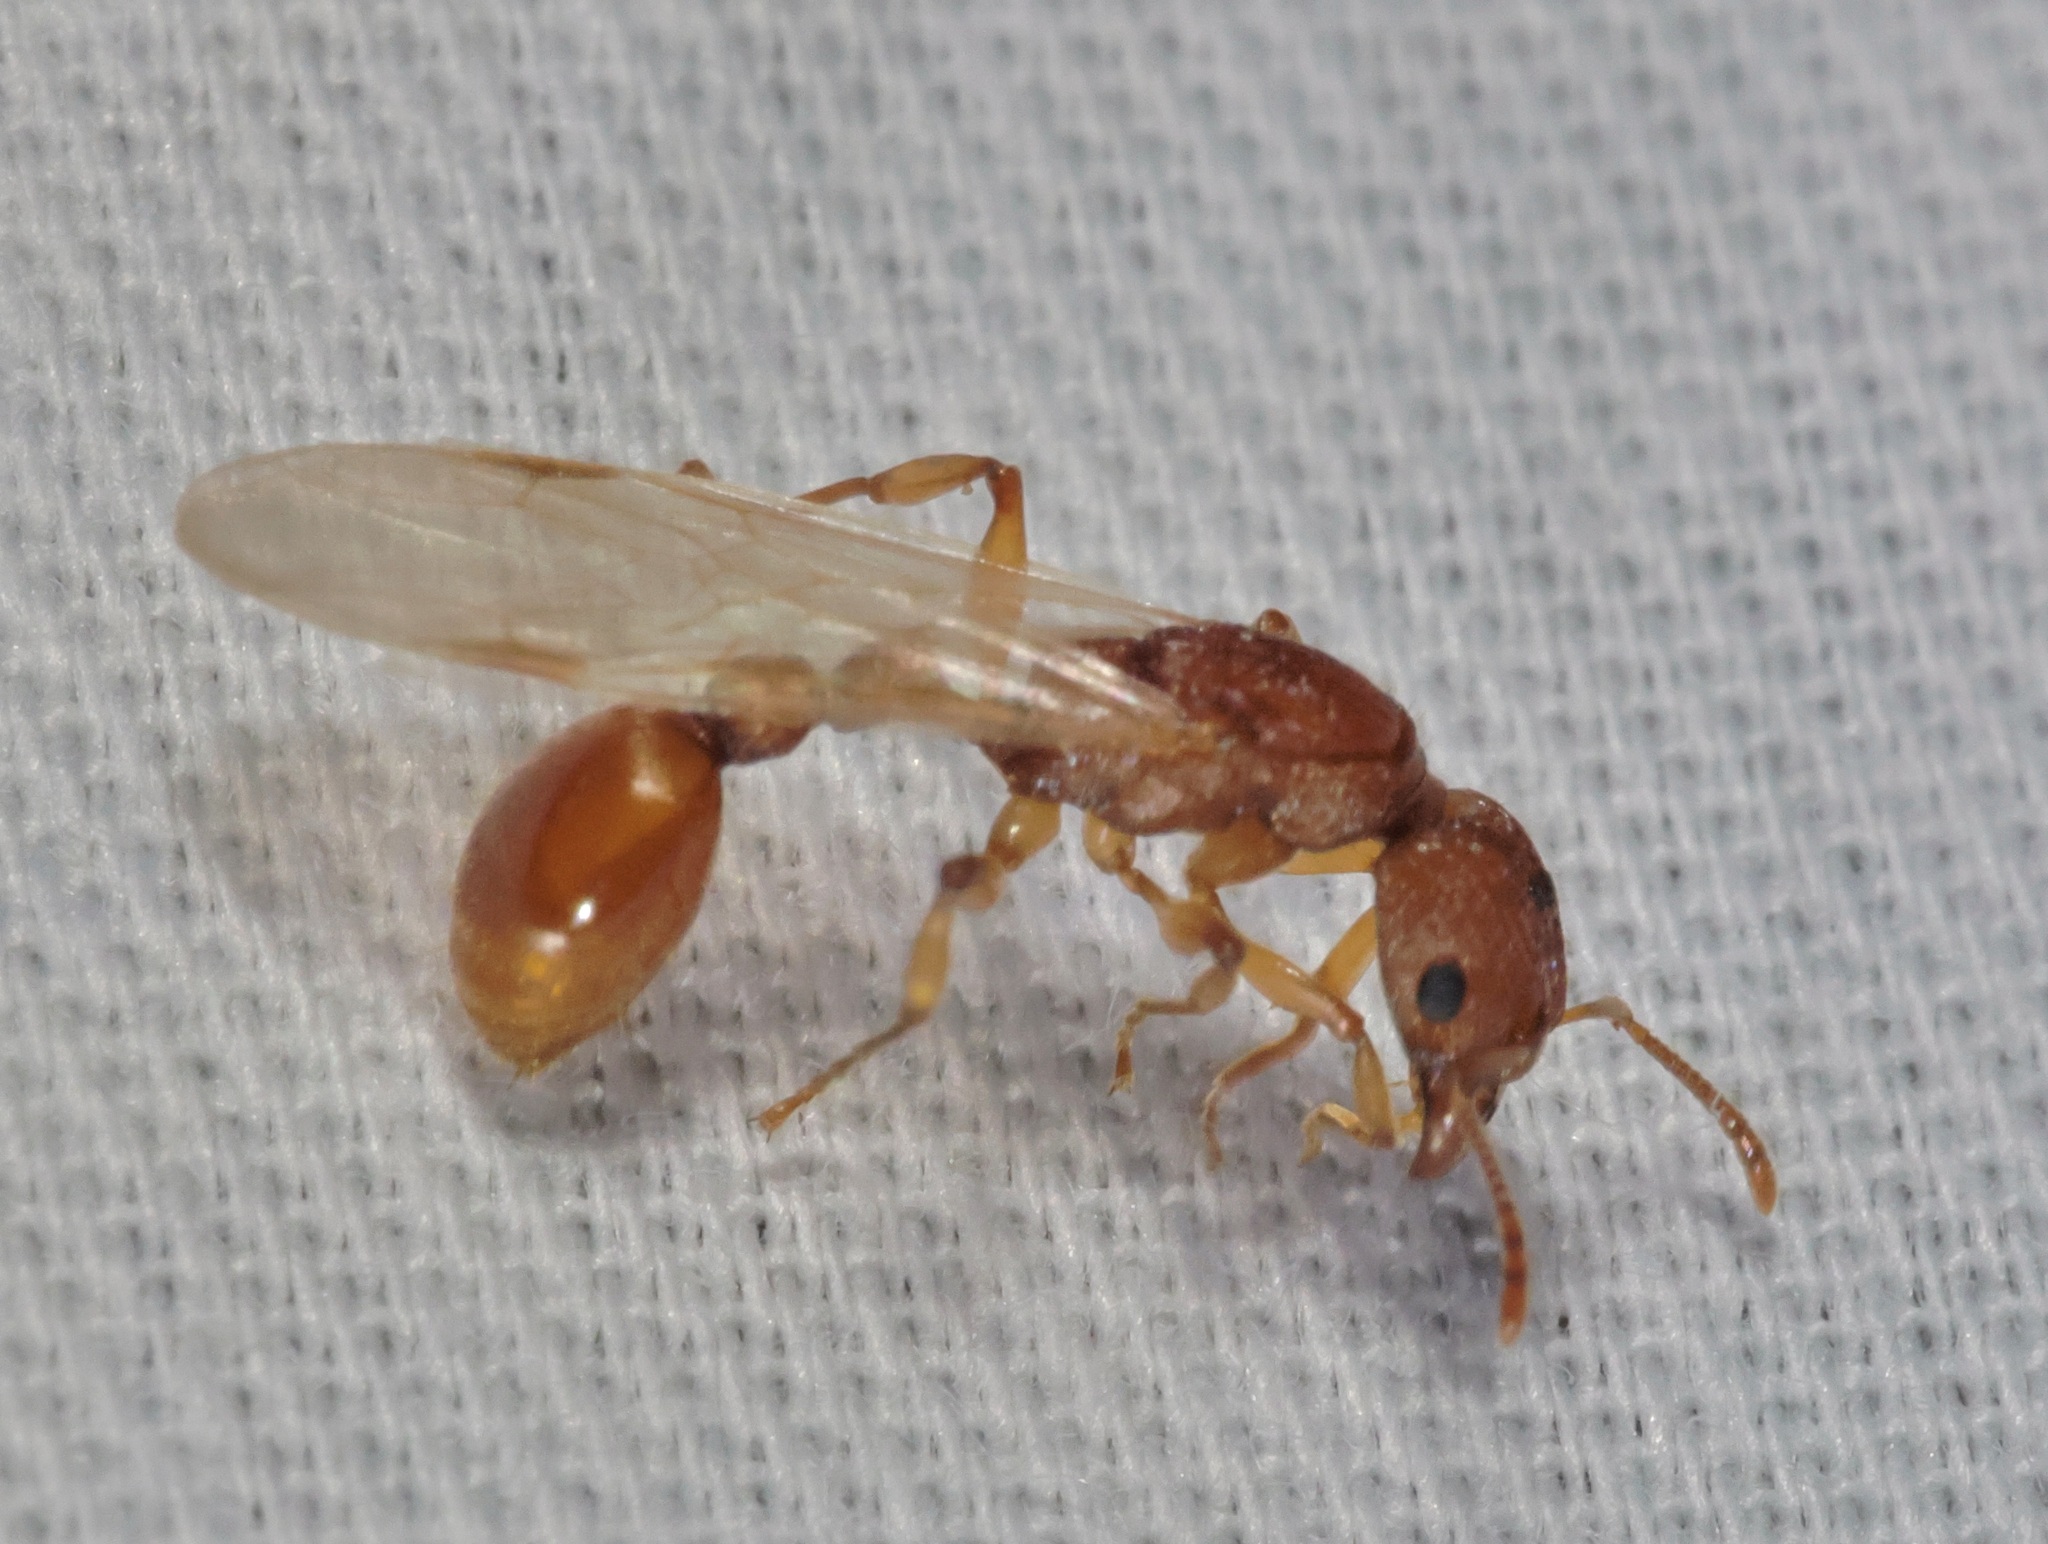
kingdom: Animalia
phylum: Arthropoda
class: Insecta
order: Hymenoptera
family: Formicidae
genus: Paratopula
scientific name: Paratopula ceylonica
